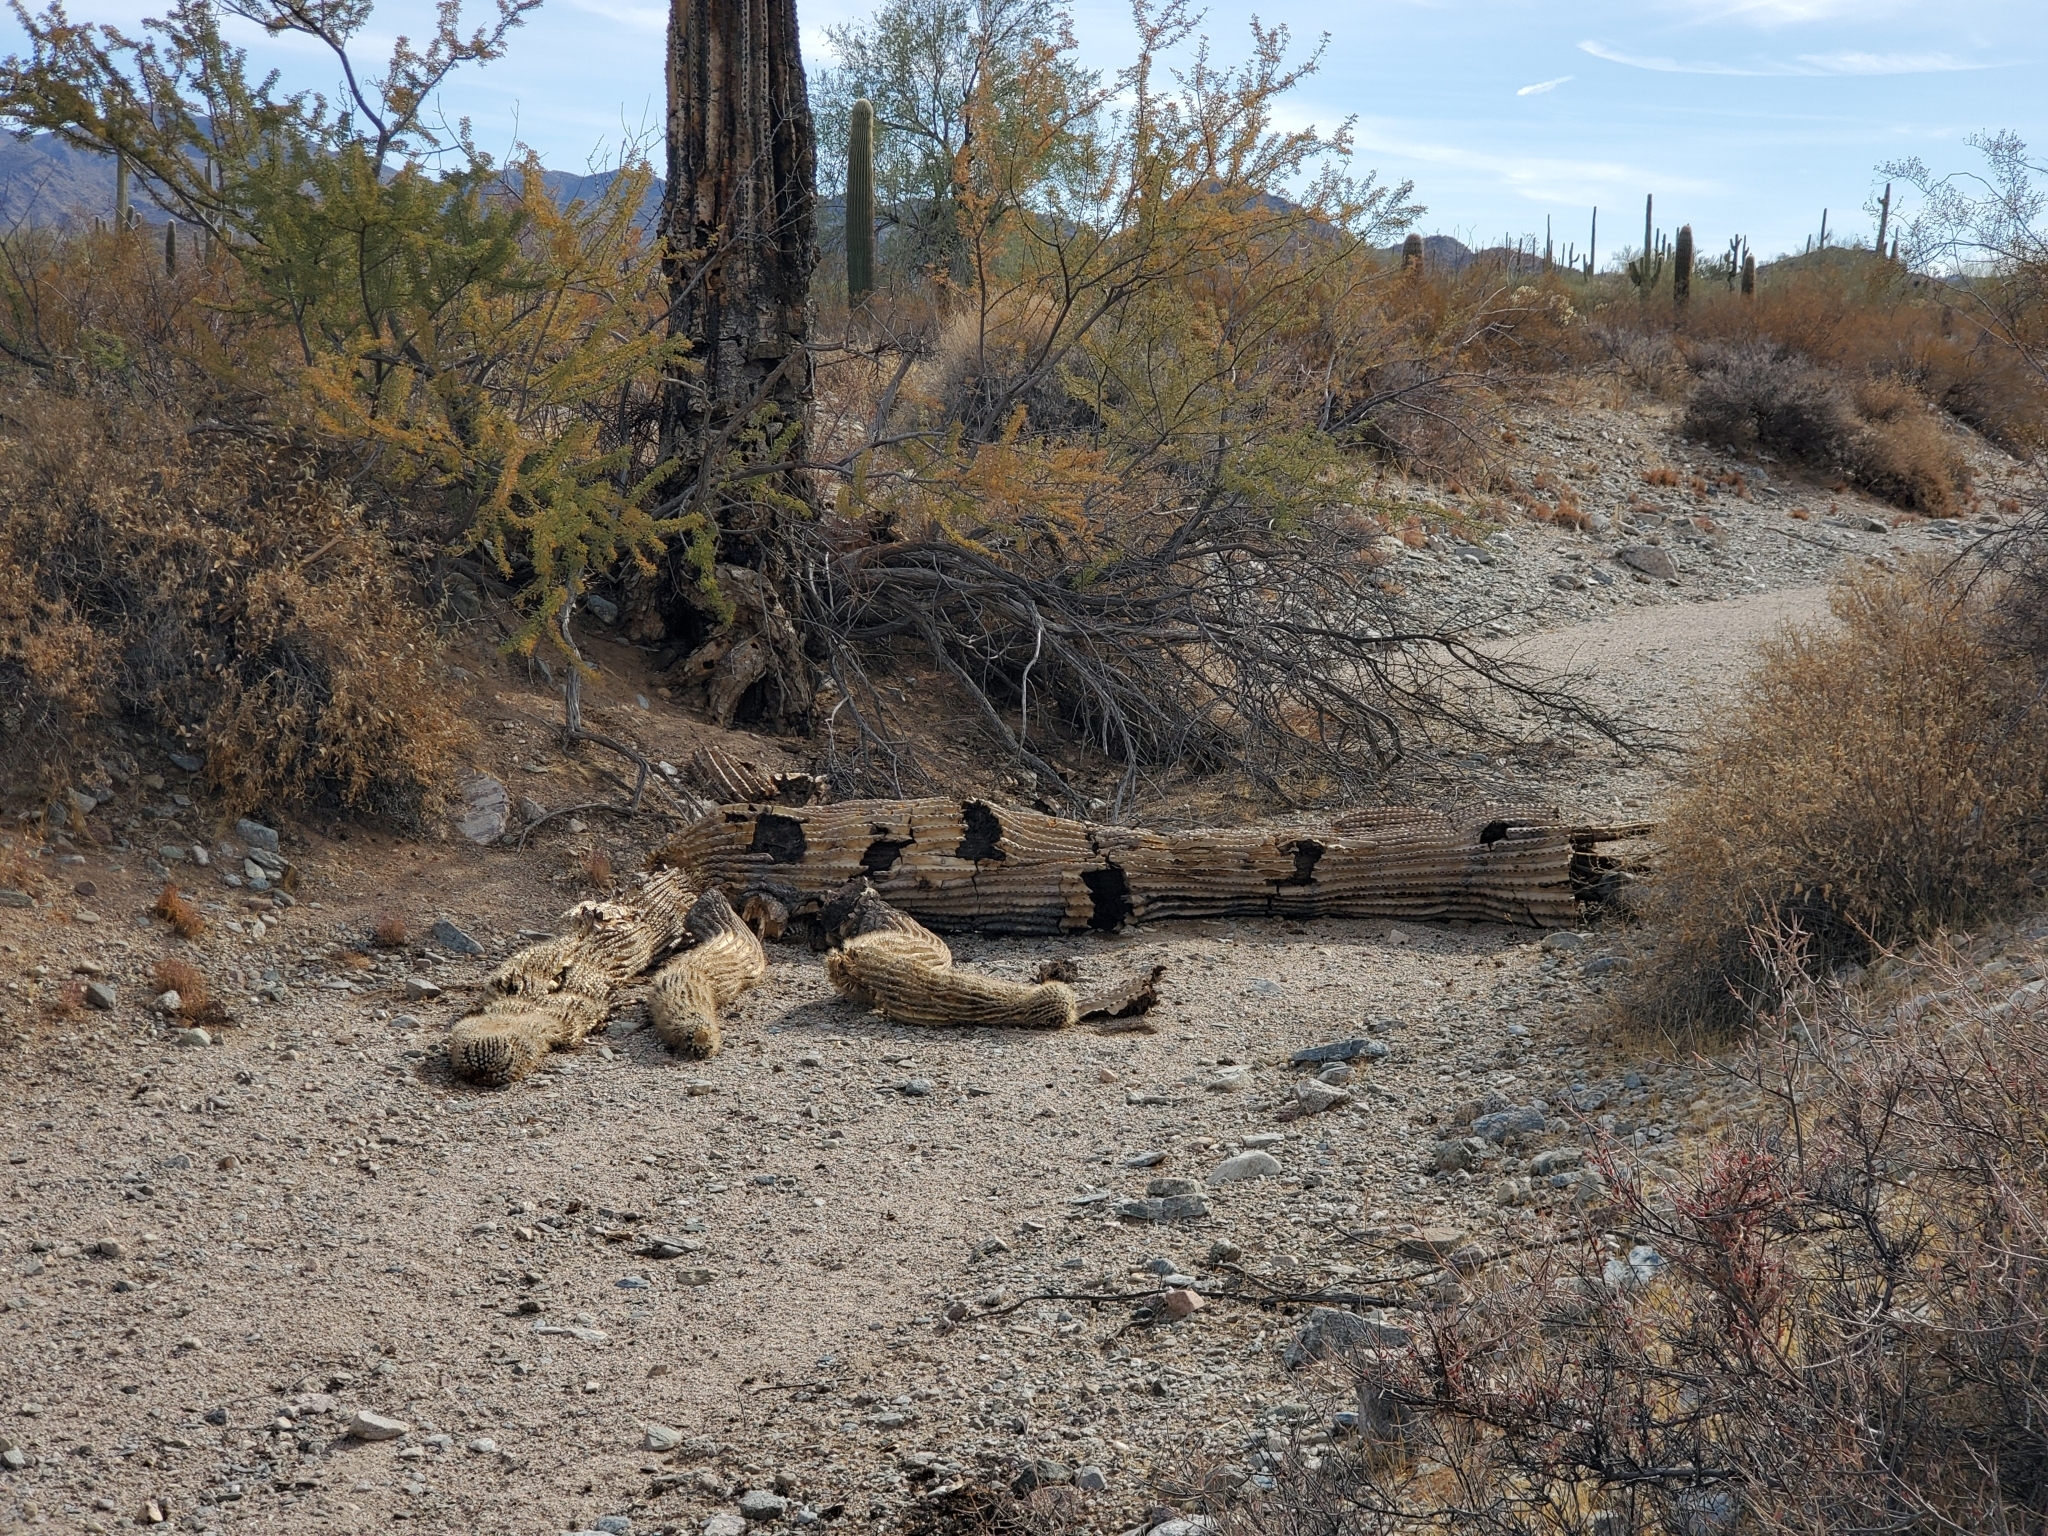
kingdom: Plantae
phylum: Tracheophyta
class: Magnoliopsida
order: Caryophyllales
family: Cactaceae
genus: Carnegiea
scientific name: Carnegiea gigantea
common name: Saguaro
